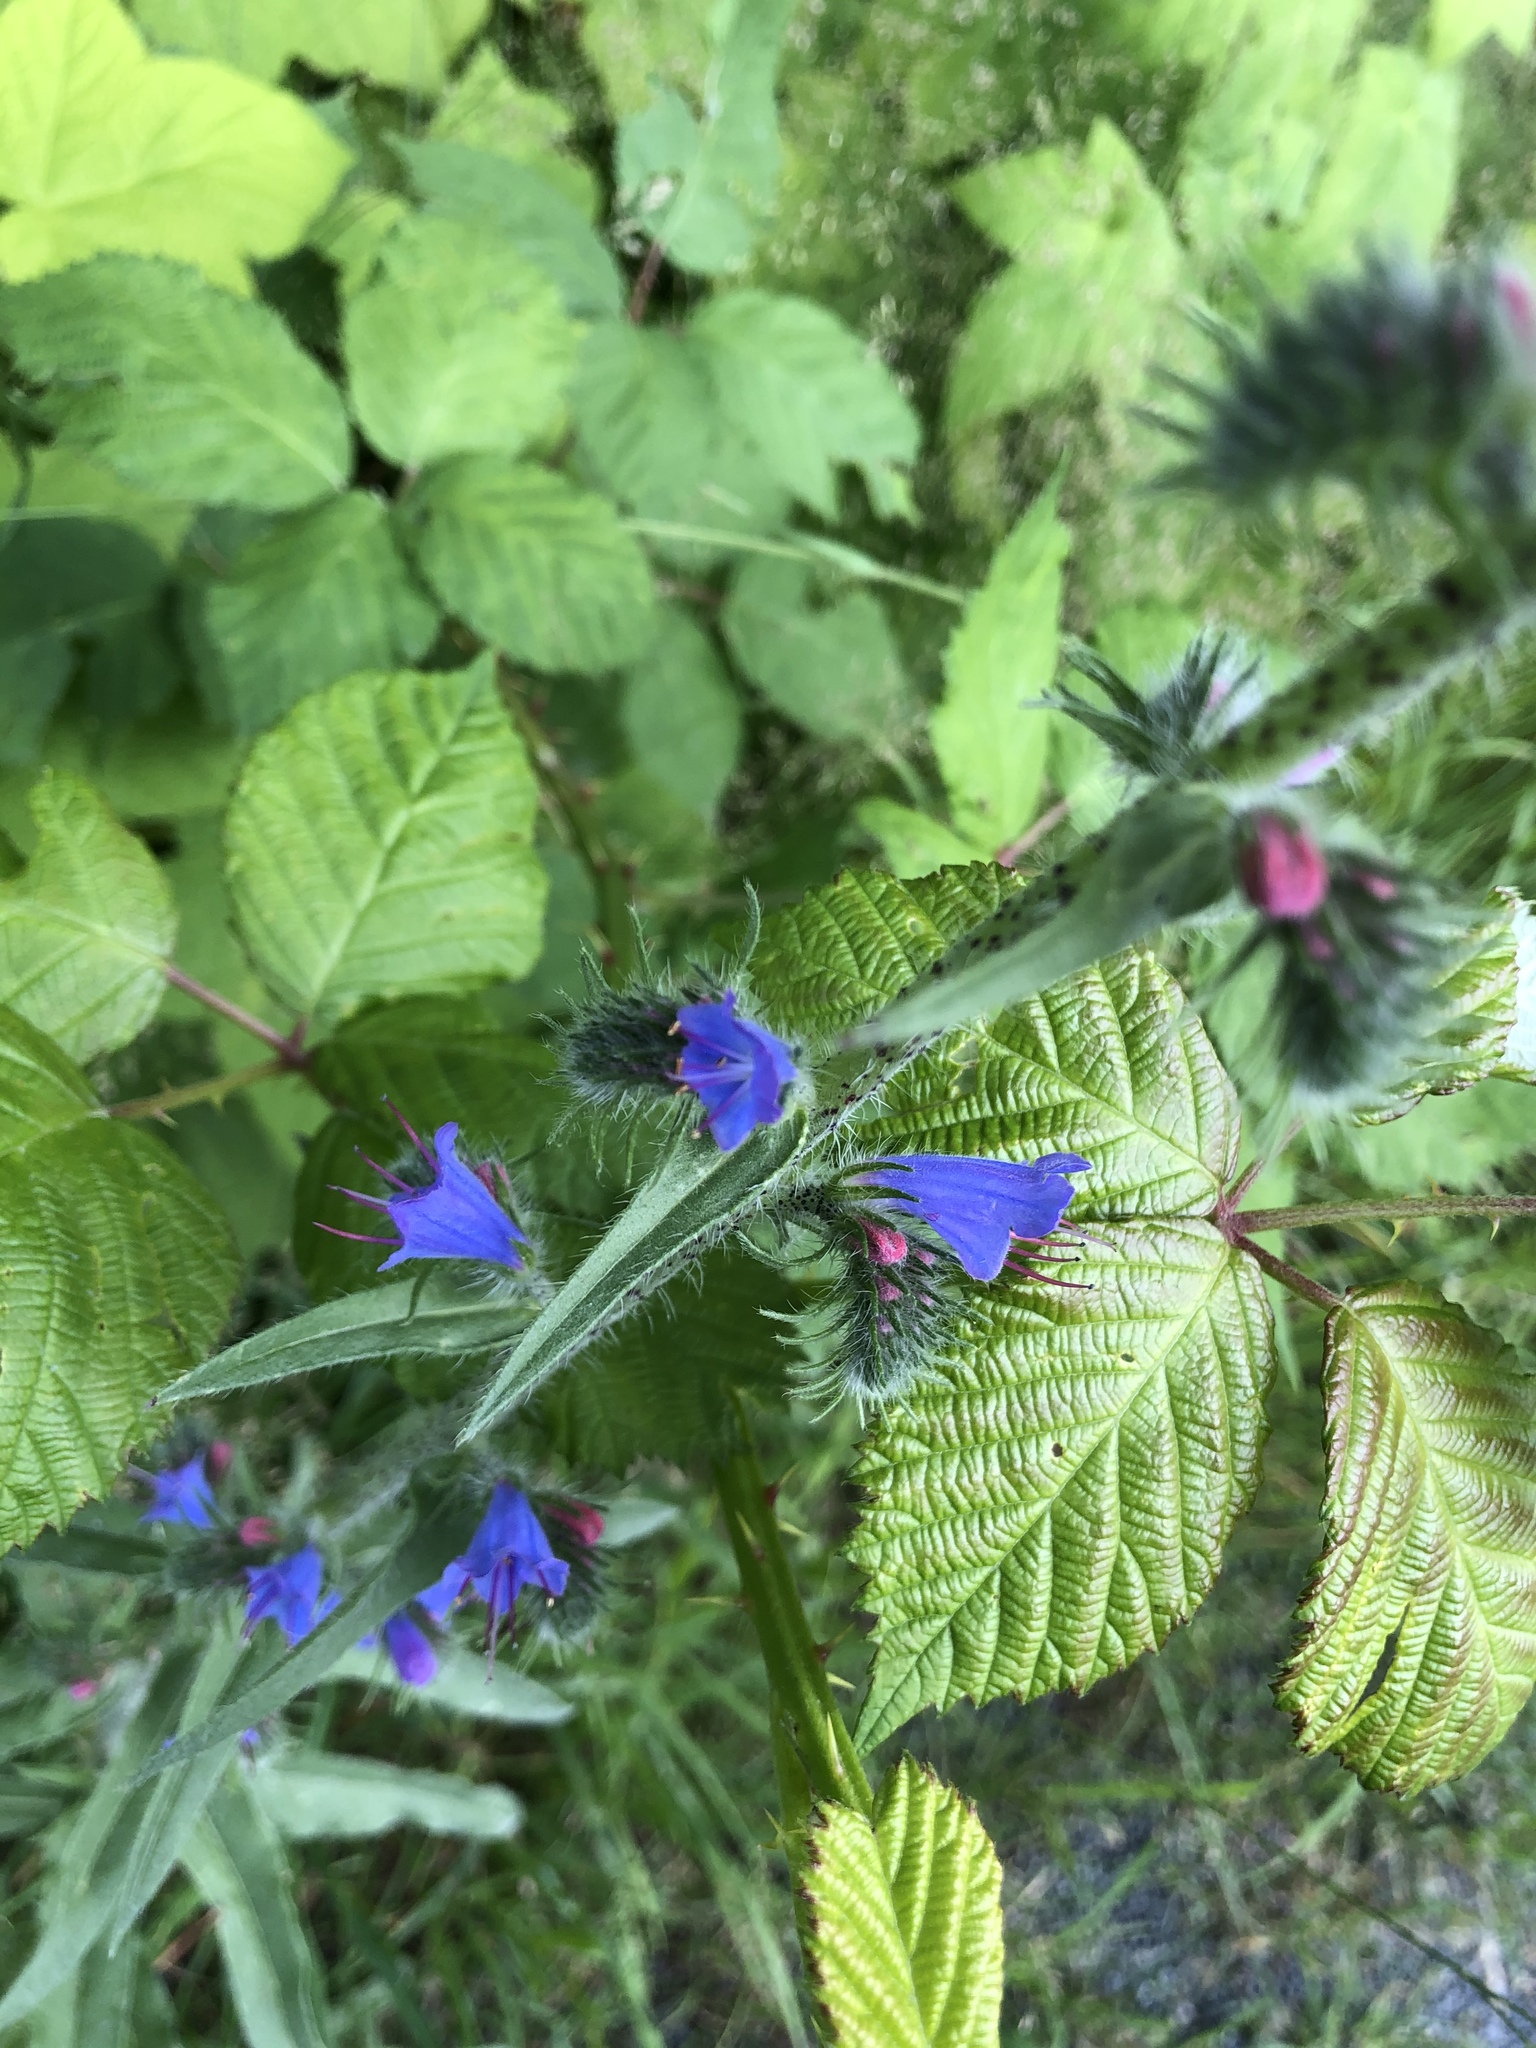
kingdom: Plantae
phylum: Tracheophyta
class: Magnoliopsida
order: Boraginales
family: Boraginaceae
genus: Echium
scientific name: Echium vulgare
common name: Common viper's bugloss
